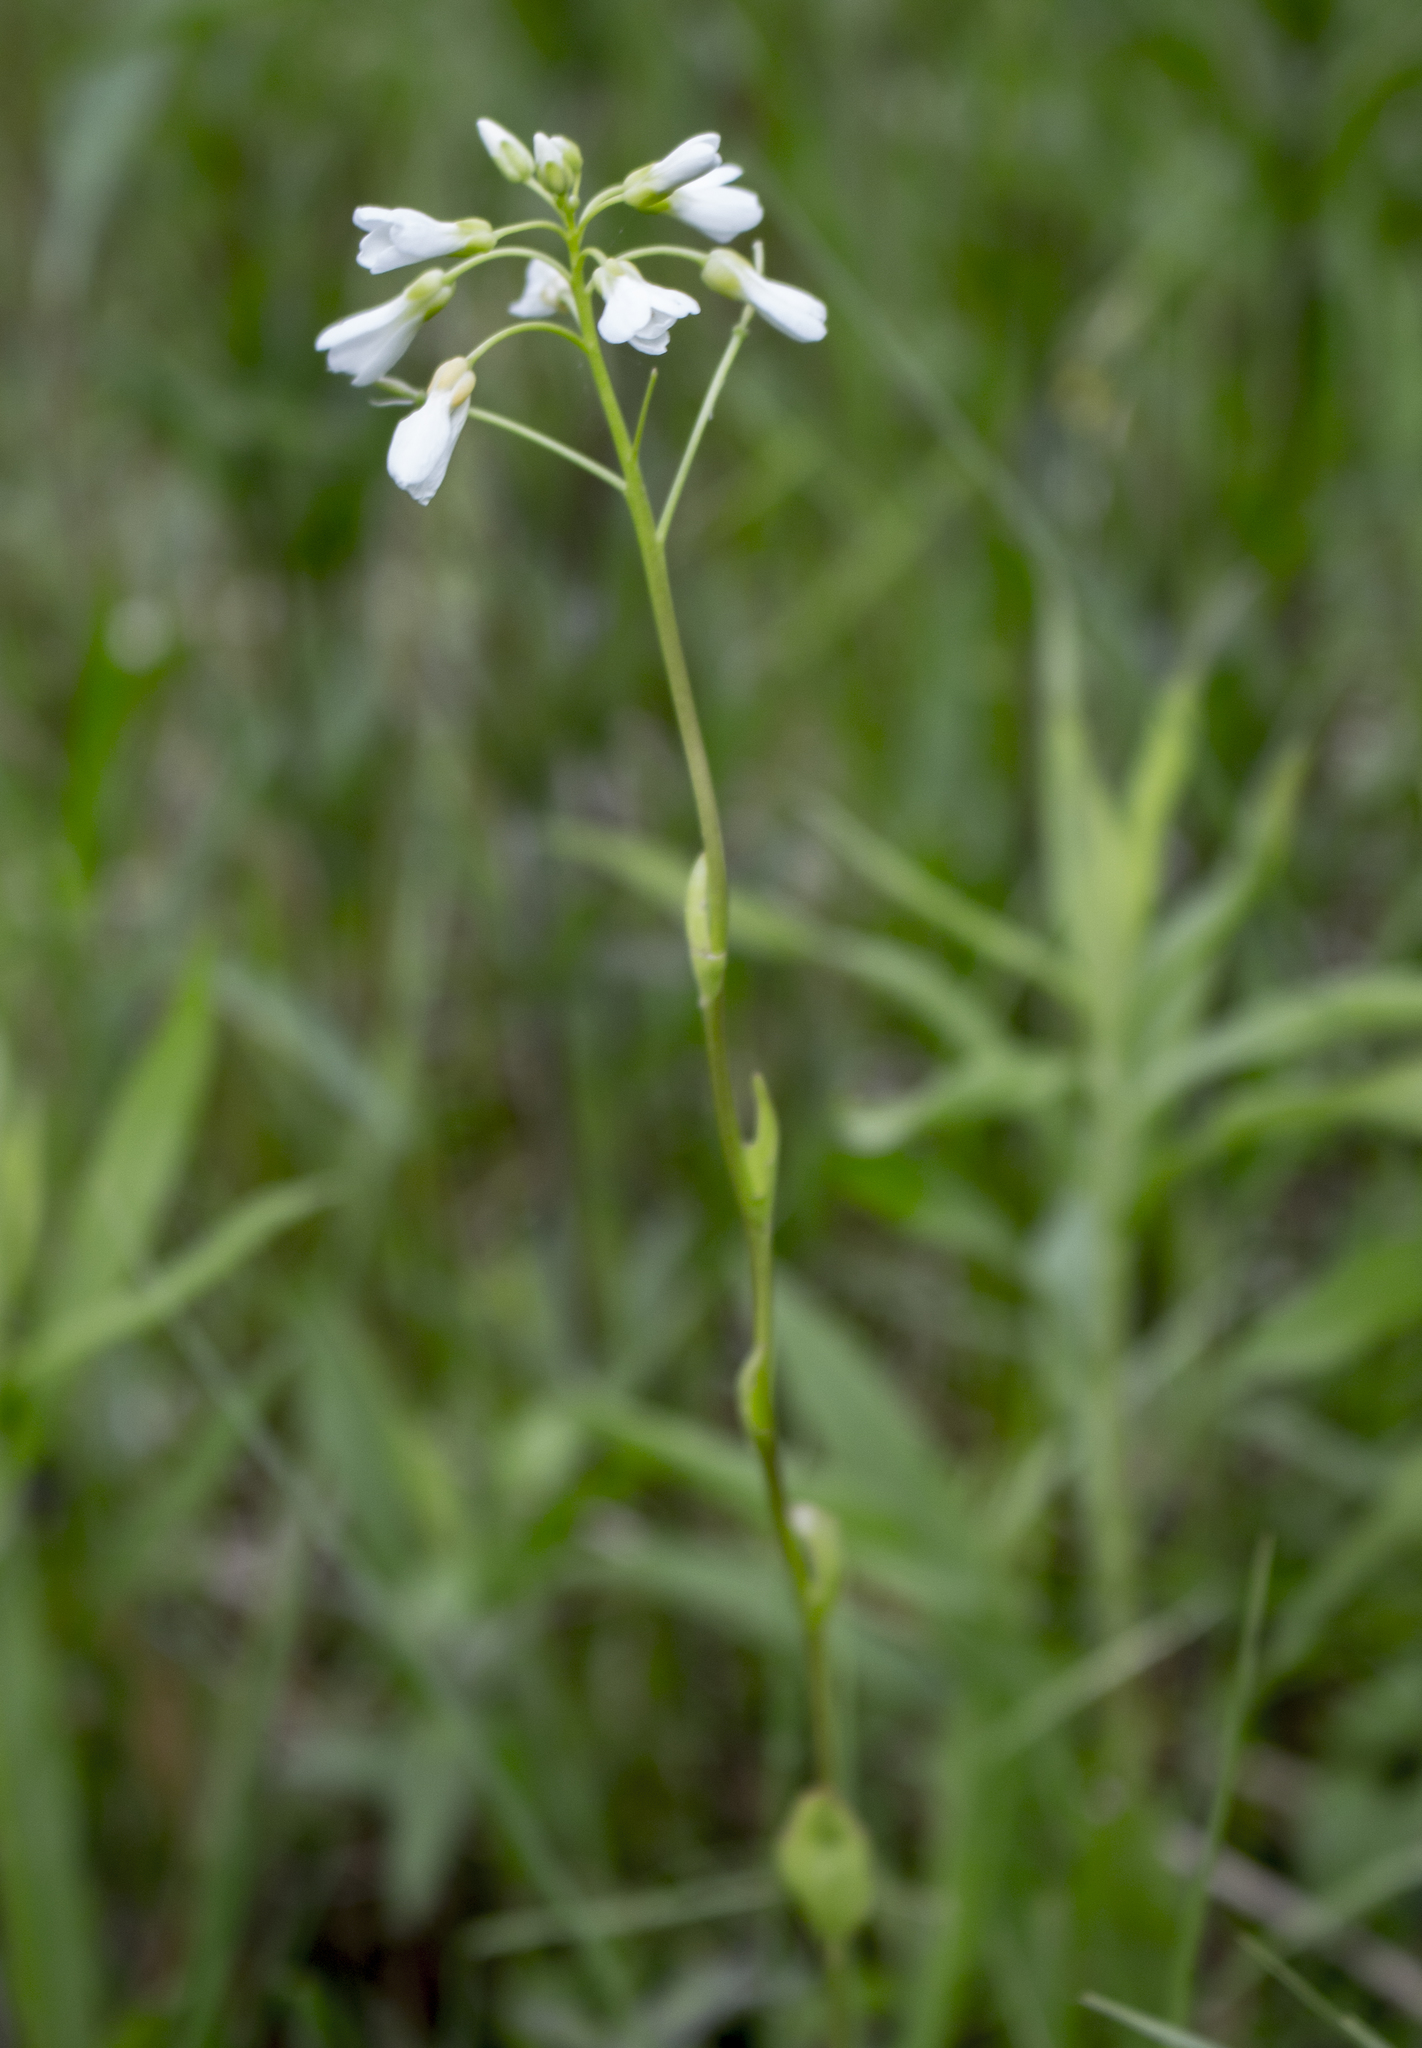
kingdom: Plantae
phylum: Tracheophyta
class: Magnoliopsida
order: Brassicales
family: Brassicaceae
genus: Cardamine
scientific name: Cardamine bulbosa
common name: Spring cress
